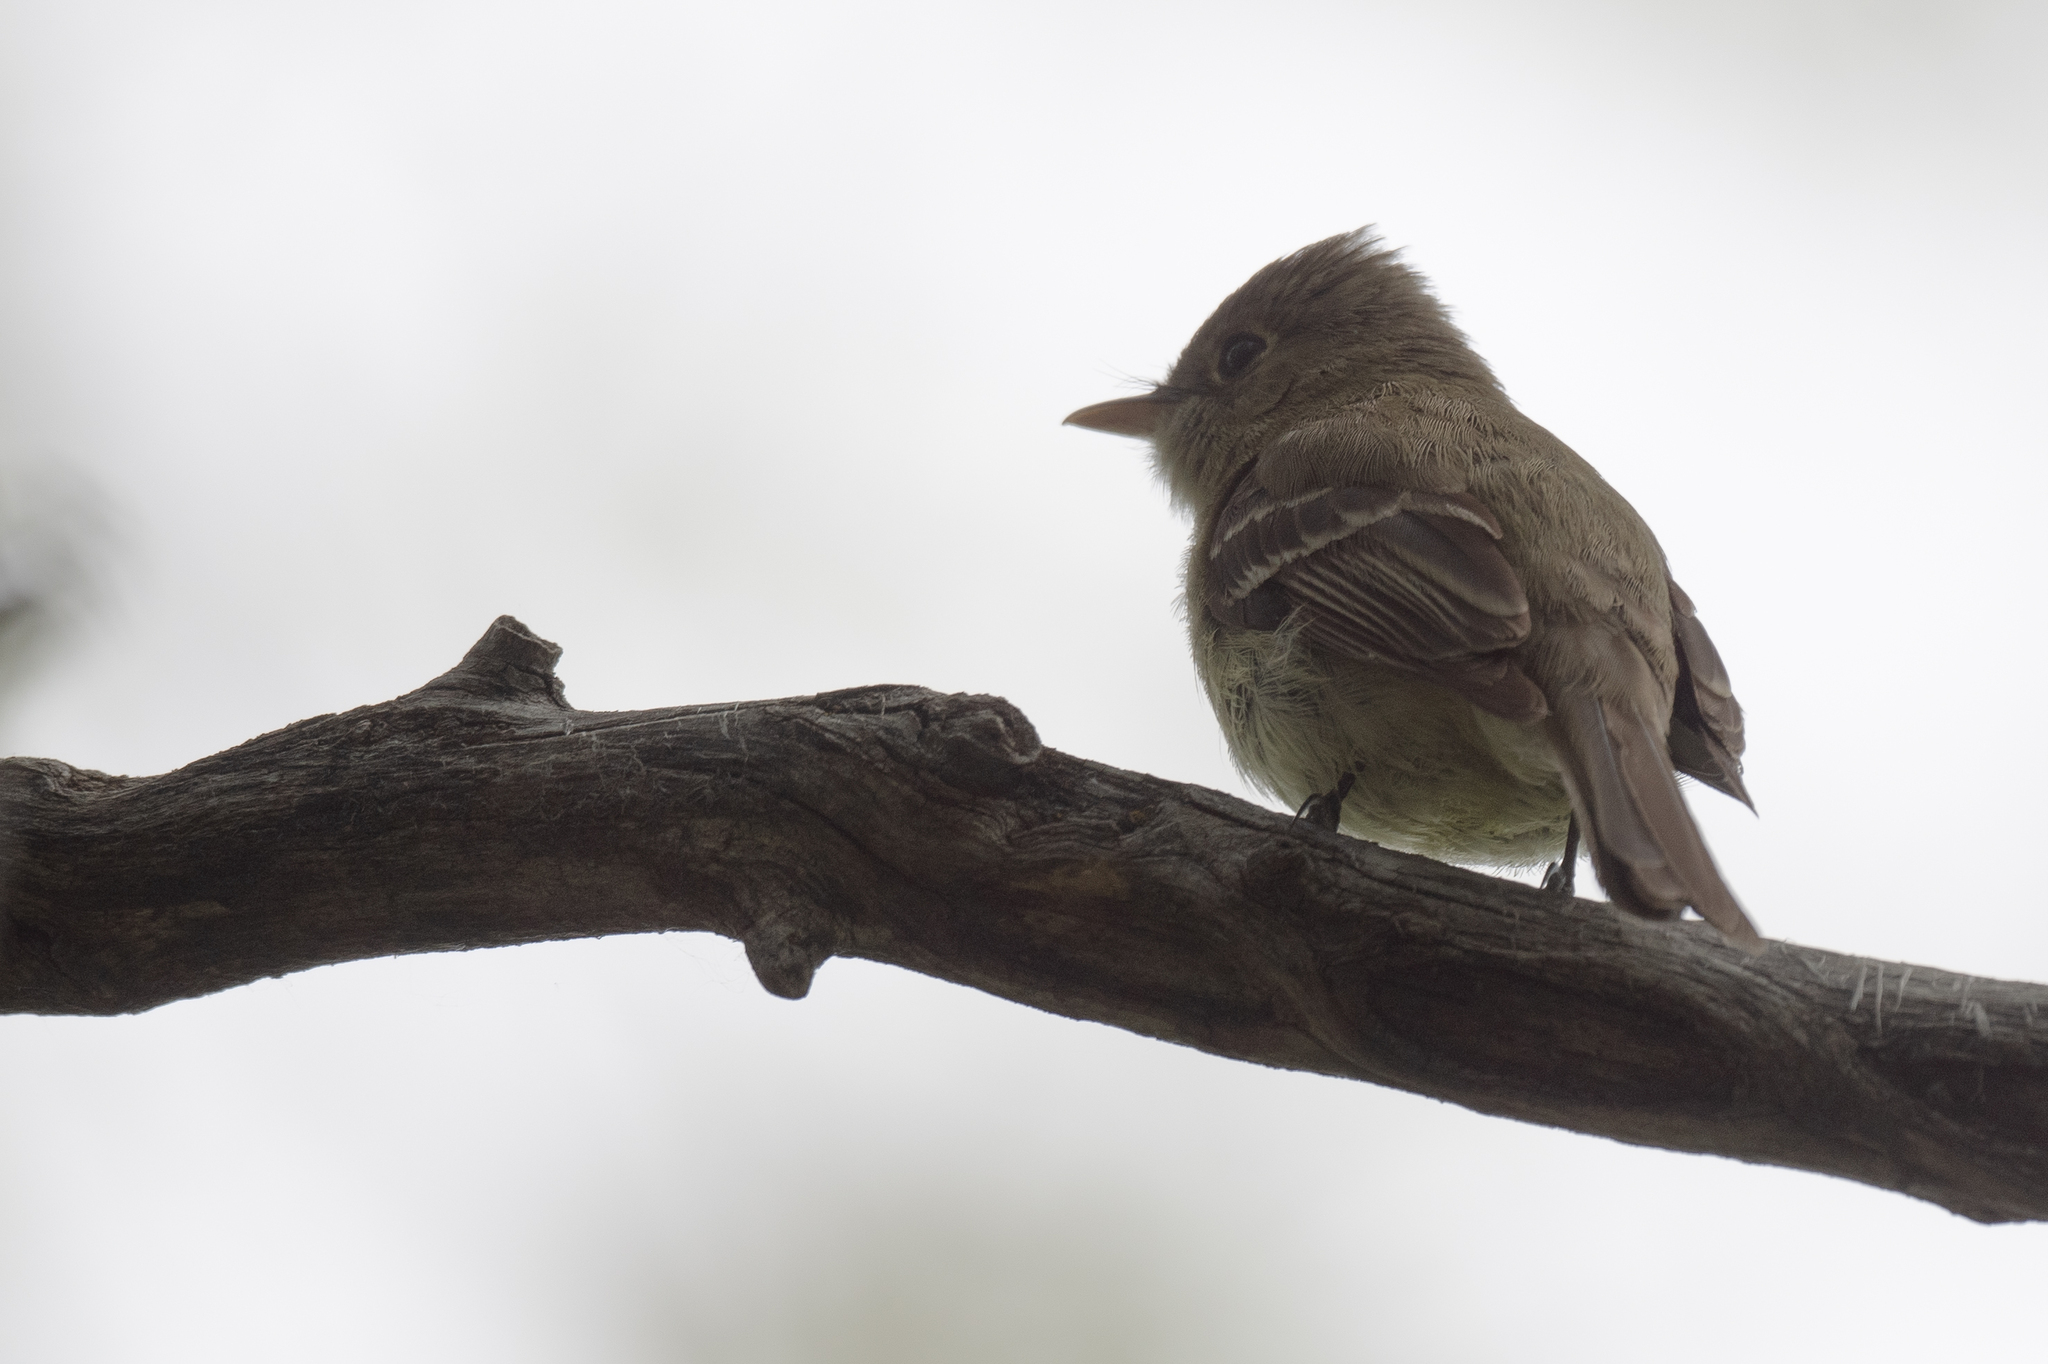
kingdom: Animalia
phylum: Chordata
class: Aves
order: Passeriformes
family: Tyrannidae
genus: Empidonax
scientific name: Empidonax difficilis
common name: Pacific-slope flycatcher
